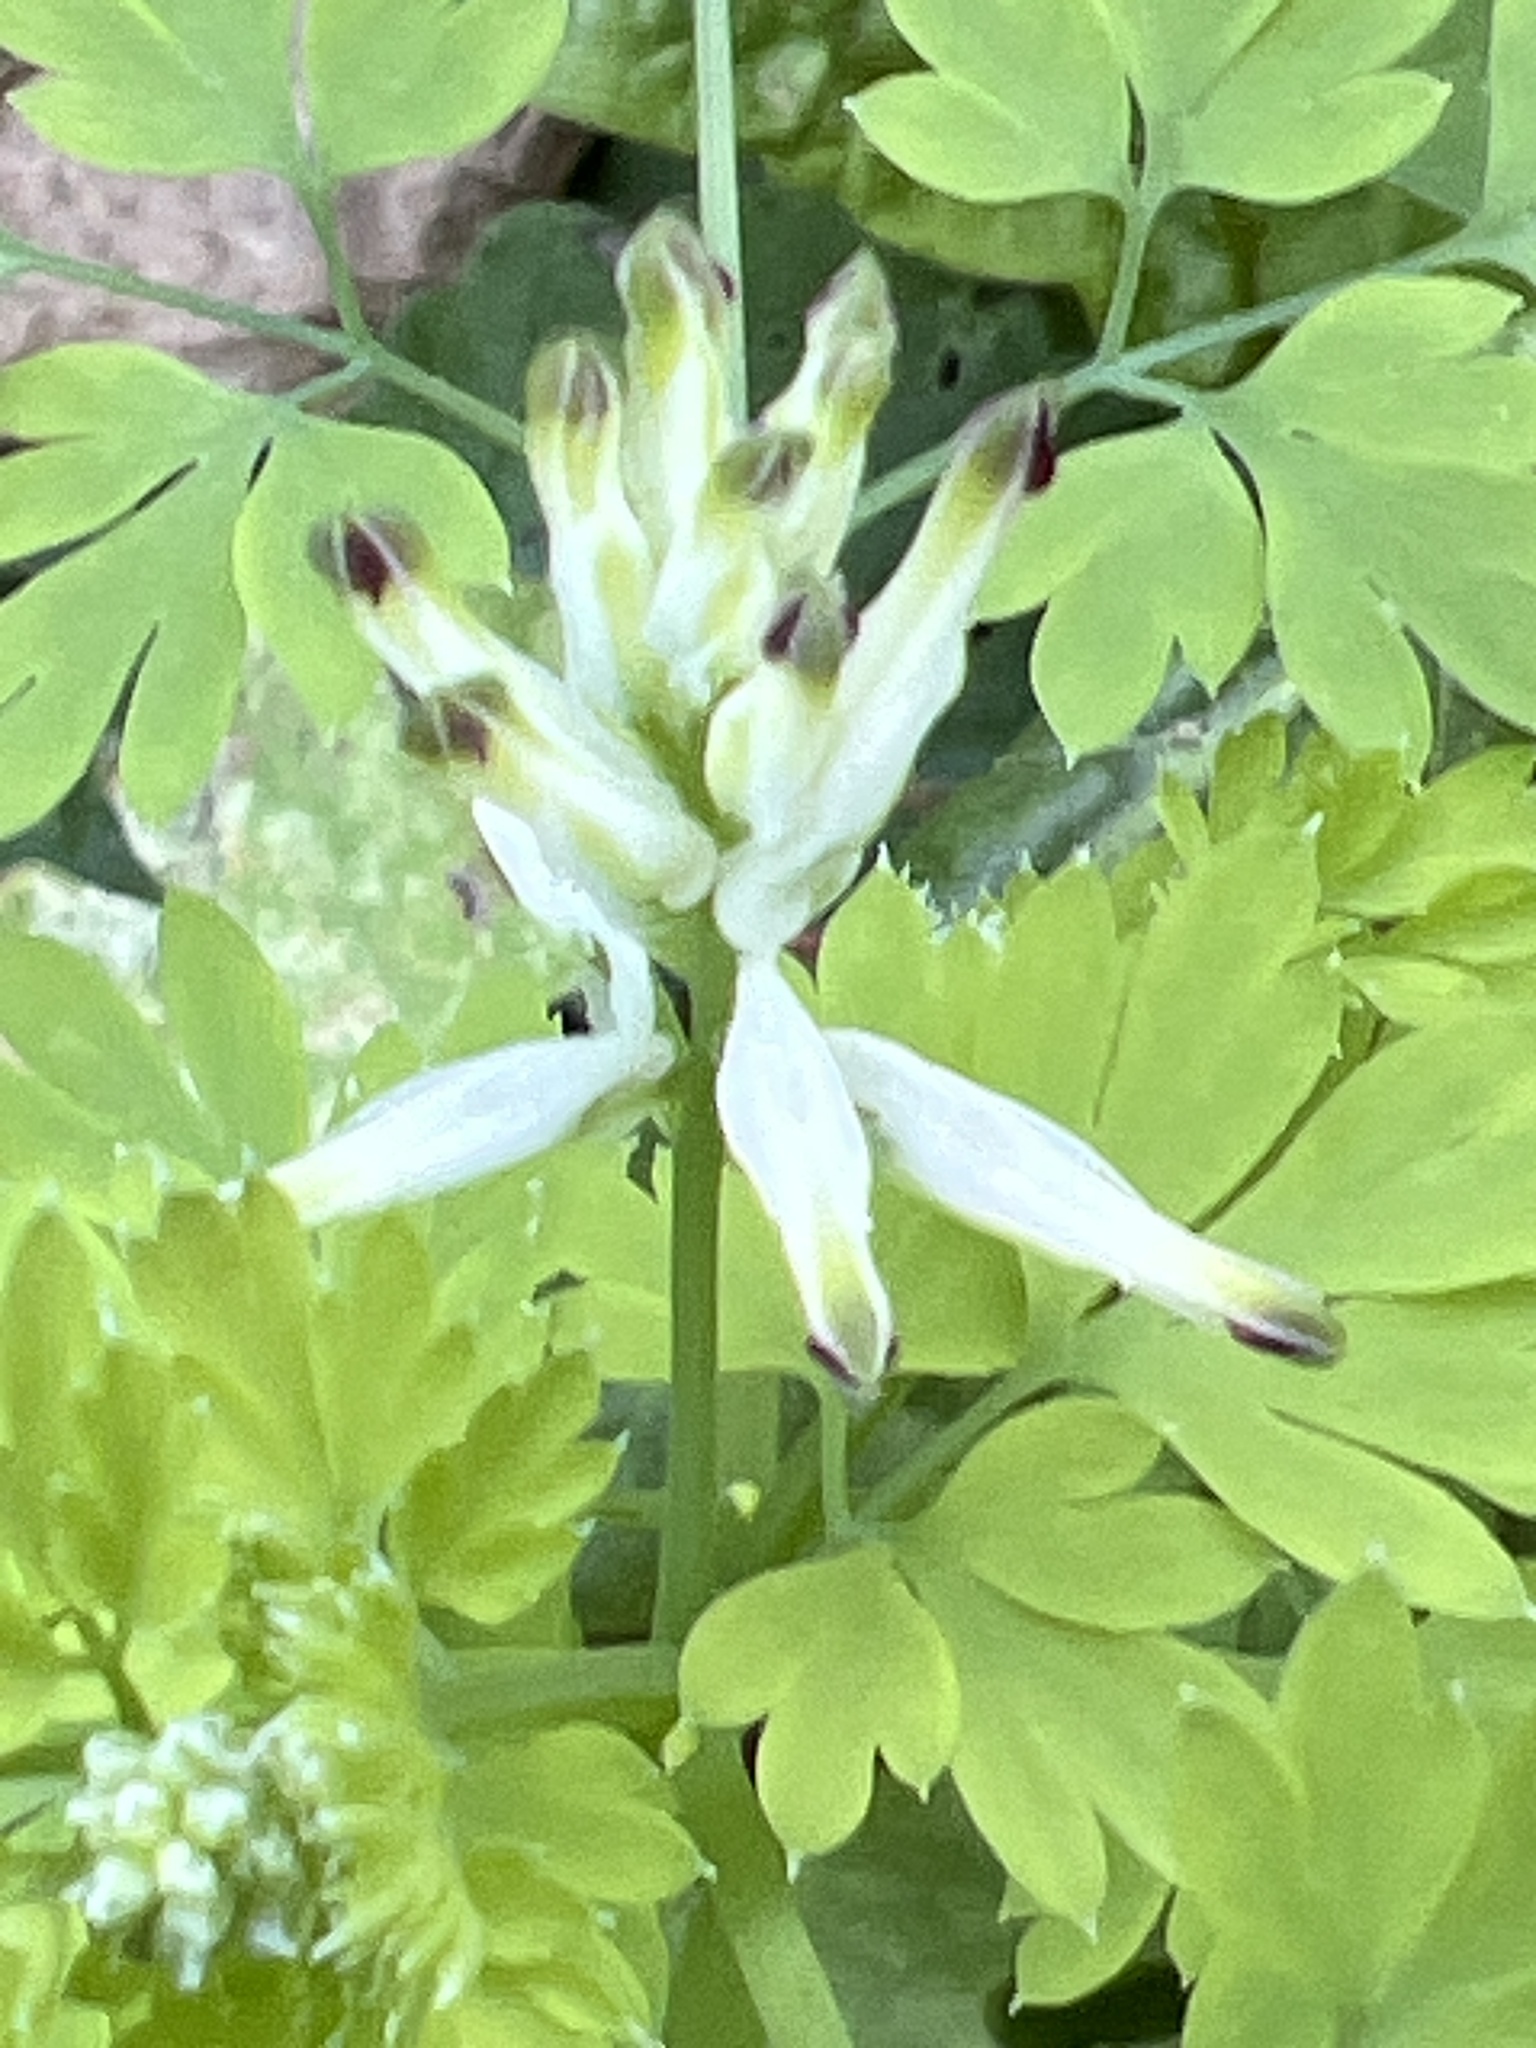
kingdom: Plantae
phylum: Tracheophyta
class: Magnoliopsida
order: Ranunculales
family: Papaveraceae
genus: Fumaria
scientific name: Fumaria capreolata
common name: White ramping-fumitory
